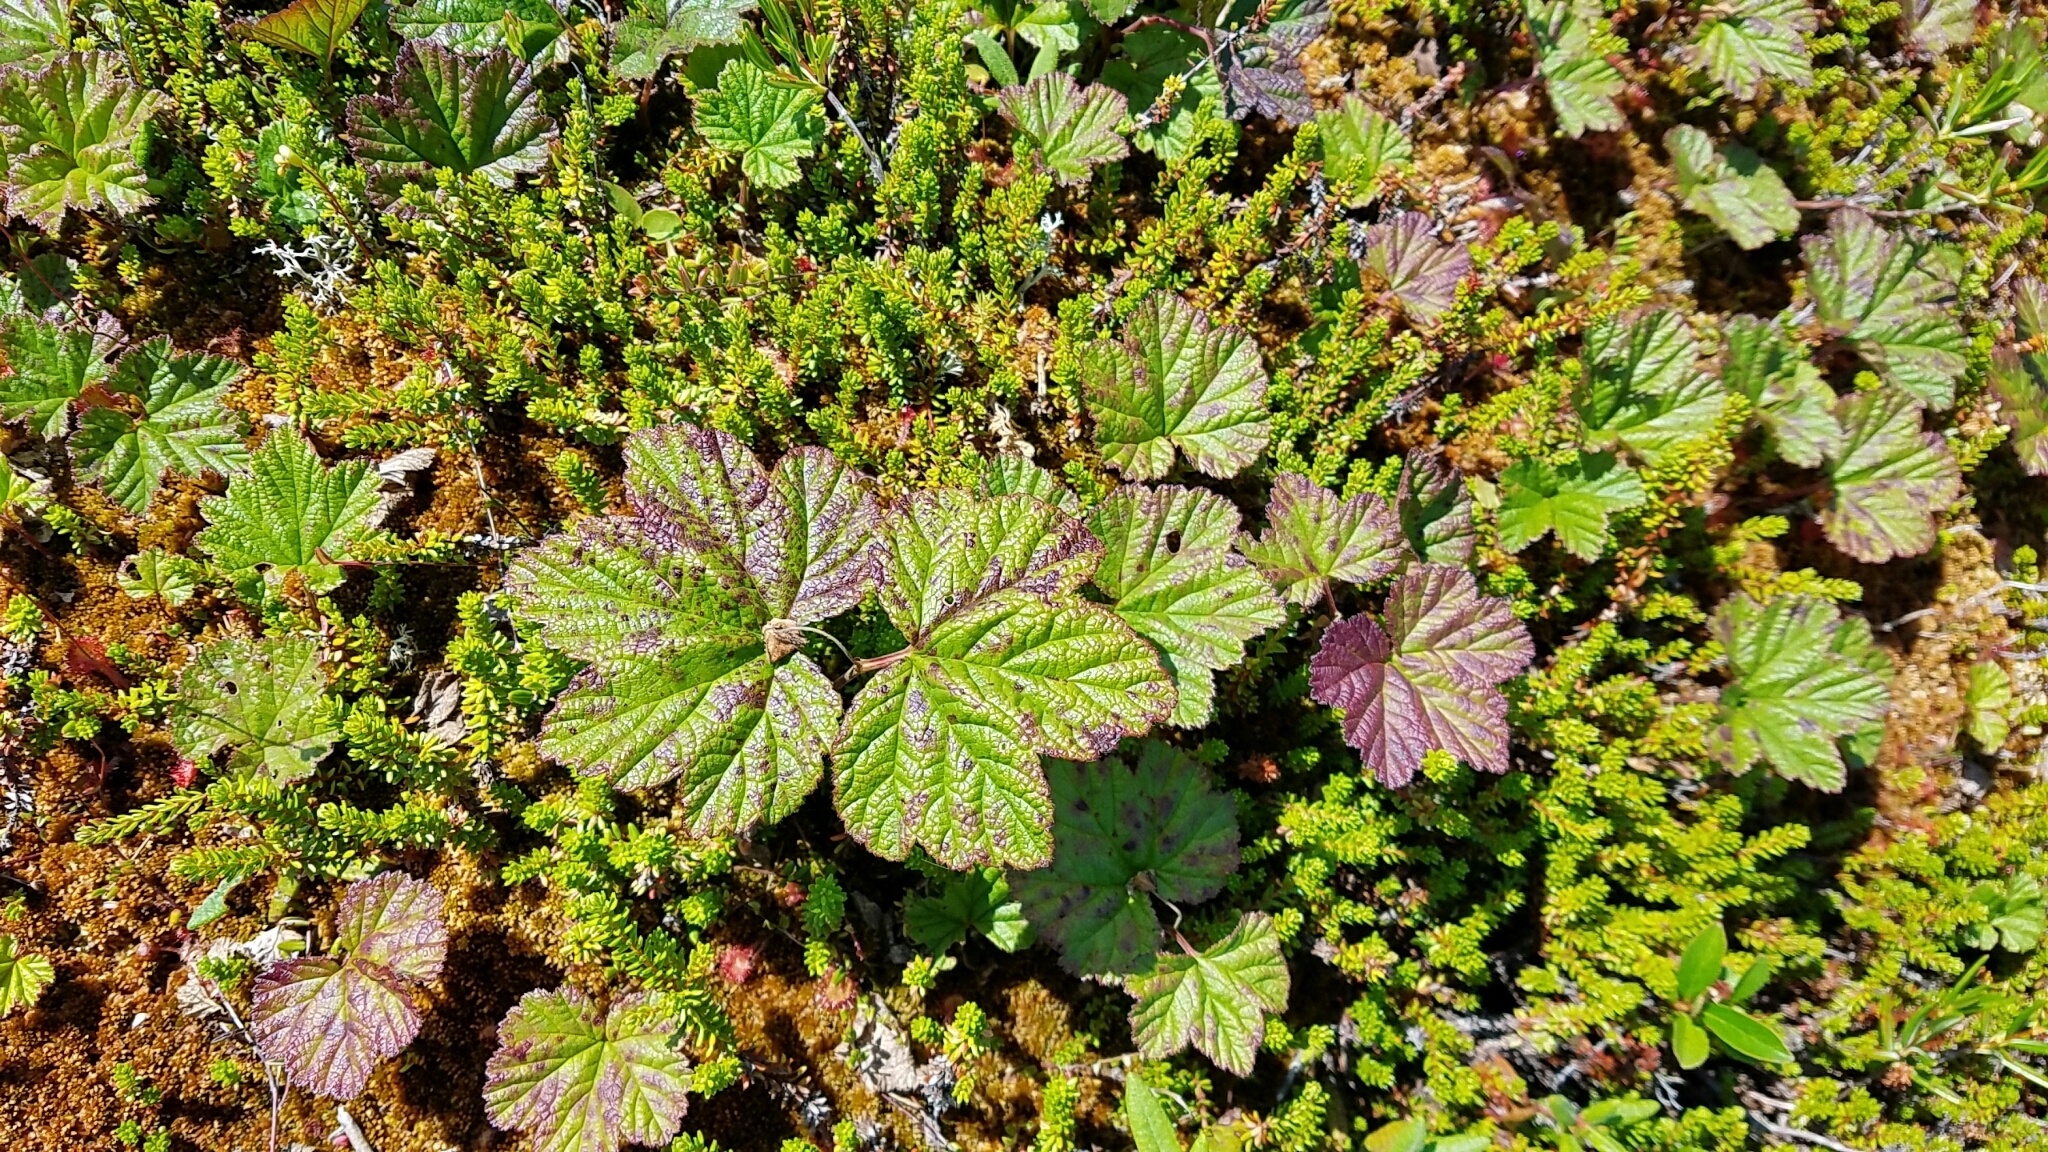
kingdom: Plantae
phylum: Tracheophyta
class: Magnoliopsida
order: Rosales
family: Rosaceae
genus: Rubus
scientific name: Rubus chamaemorus
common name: Cloudberry
